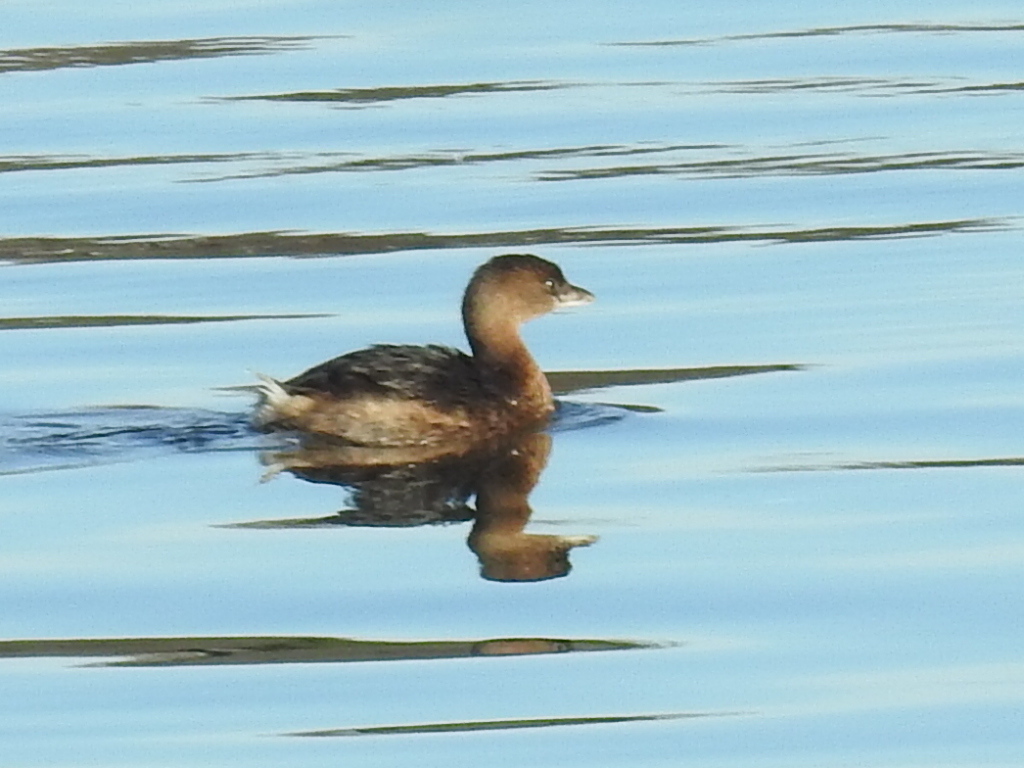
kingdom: Animalia
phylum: Chordata
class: Aves
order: Podicipediformes
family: Podicipedidae
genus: Podilymbus
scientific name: Podilymbus podiceps
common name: Pied-billed grebe
